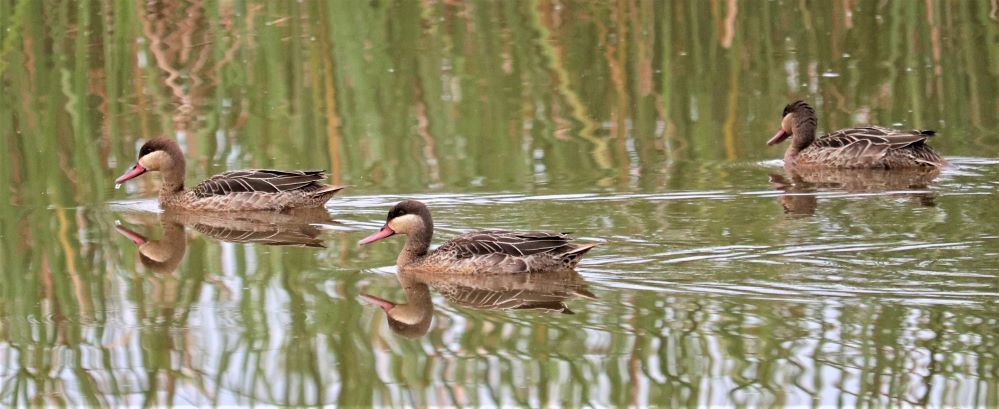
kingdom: Animalia
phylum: Chordata
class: Aves
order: Anseriformes
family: Anatidae
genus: Anas
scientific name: Anas erythrorhyncha
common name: Red-billed teal
